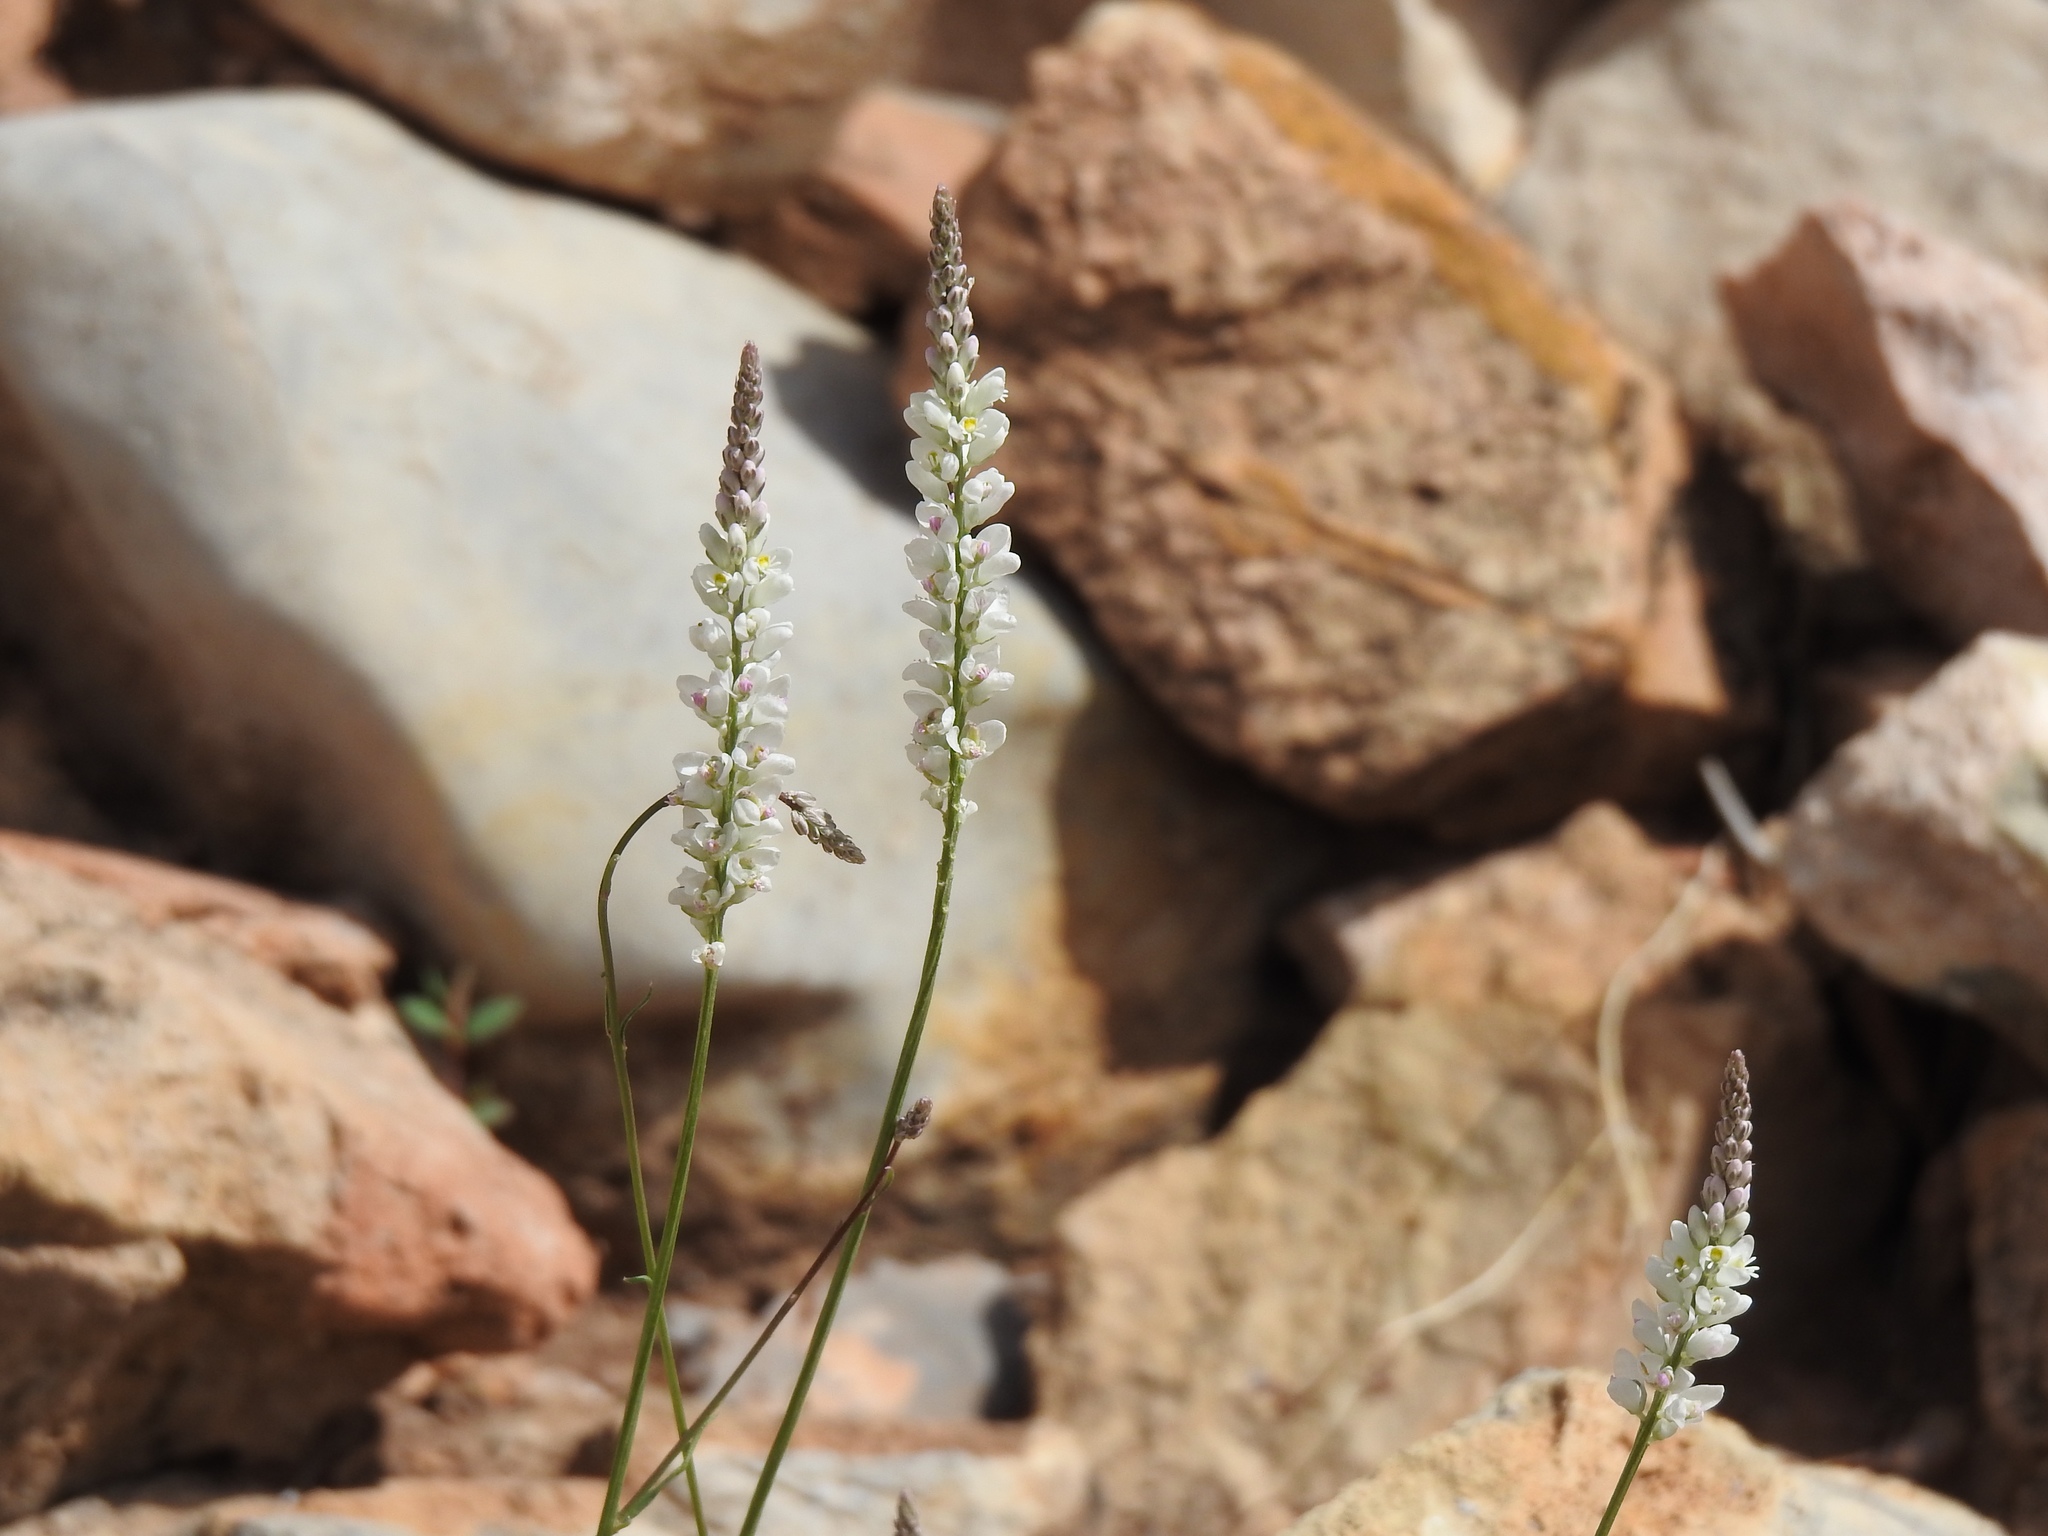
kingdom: Plantae
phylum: Tracheophyta
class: Magnoliopsida
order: Fabales
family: Polygalaceae
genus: Polygala
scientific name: Polygala alba
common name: White milkwort
